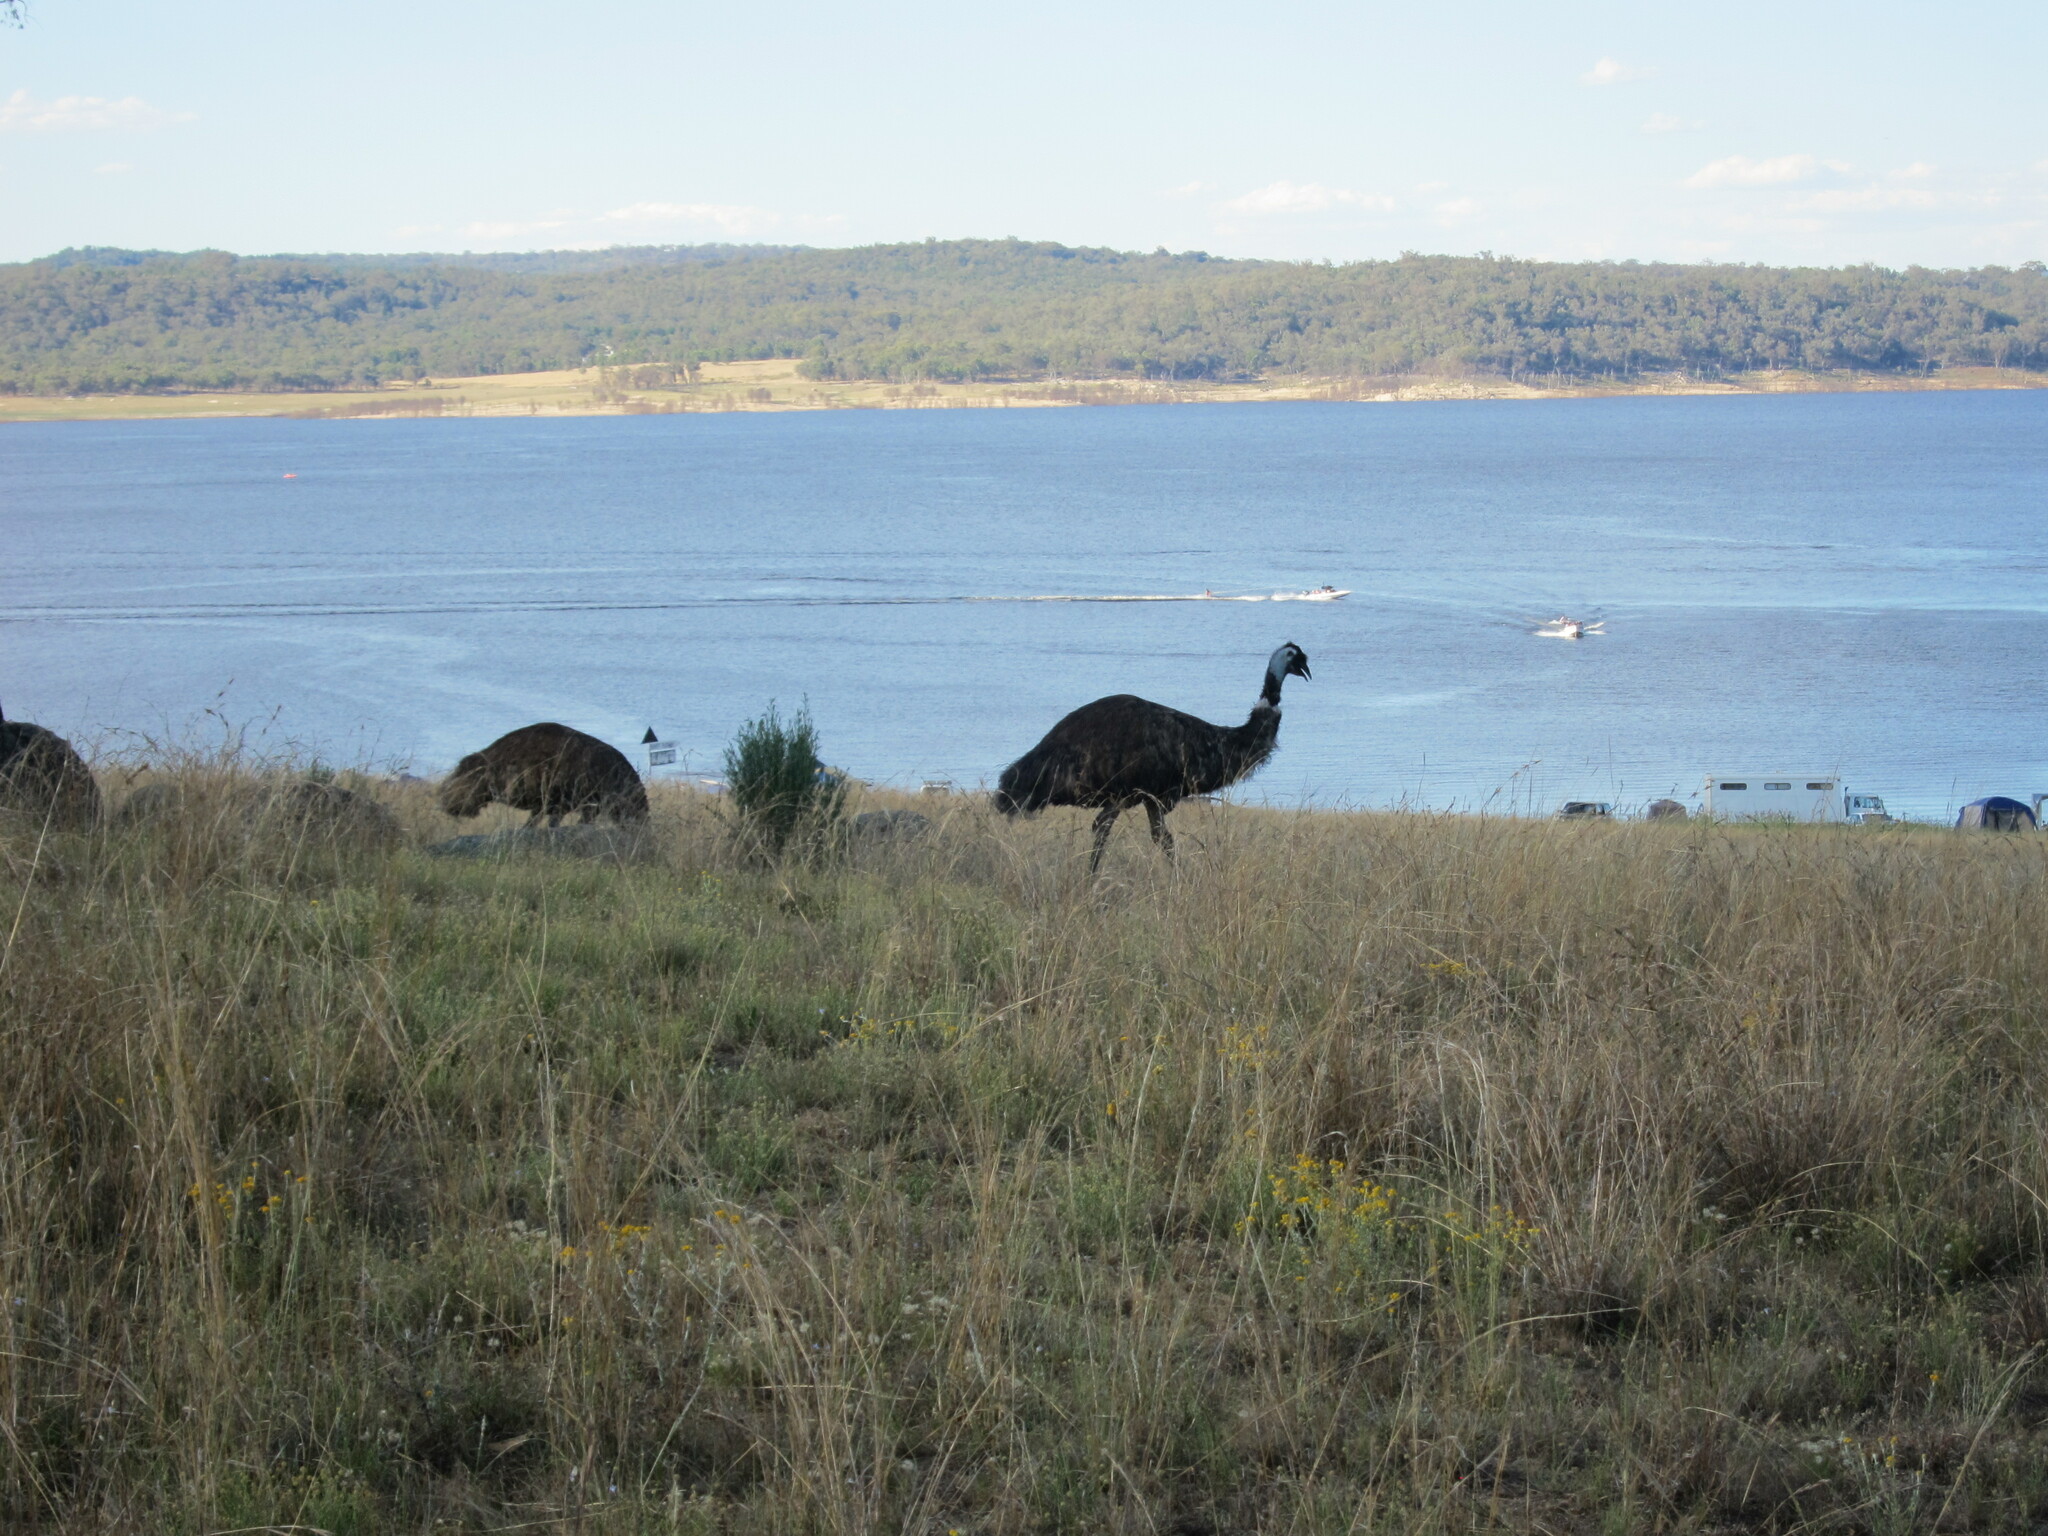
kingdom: Animalia
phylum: Chordata
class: Aves
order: Casuariiformes
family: Dromaiidae
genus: Dromaius
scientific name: Dromaius novaehollandiae
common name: Emu
